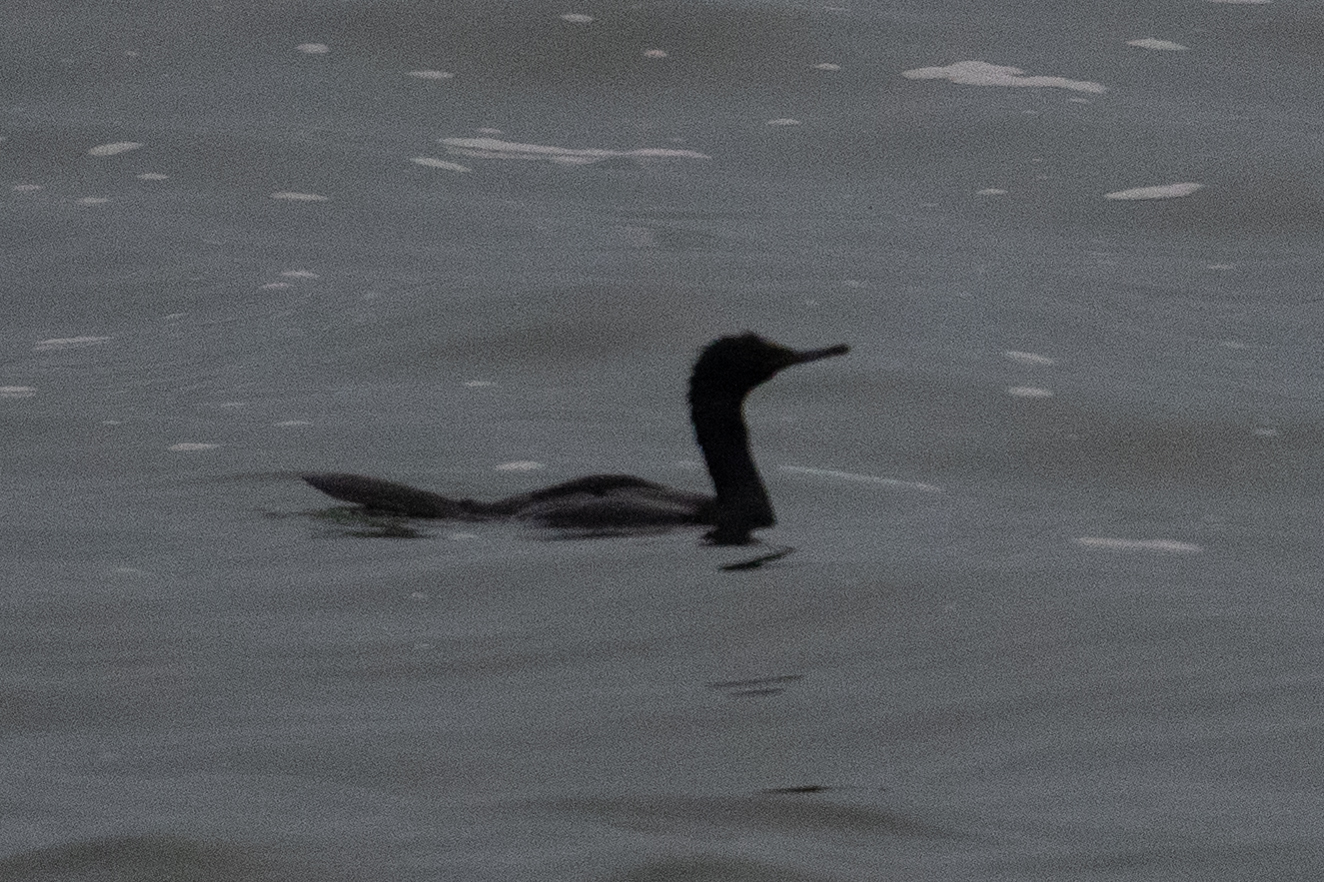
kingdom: Animalia
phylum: Chordata
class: Aves
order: Suliformes
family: Phalacrocoracidae
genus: Phalacrocorax
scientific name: Phalacrocorax pelagicus
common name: Pelagic cormorant
